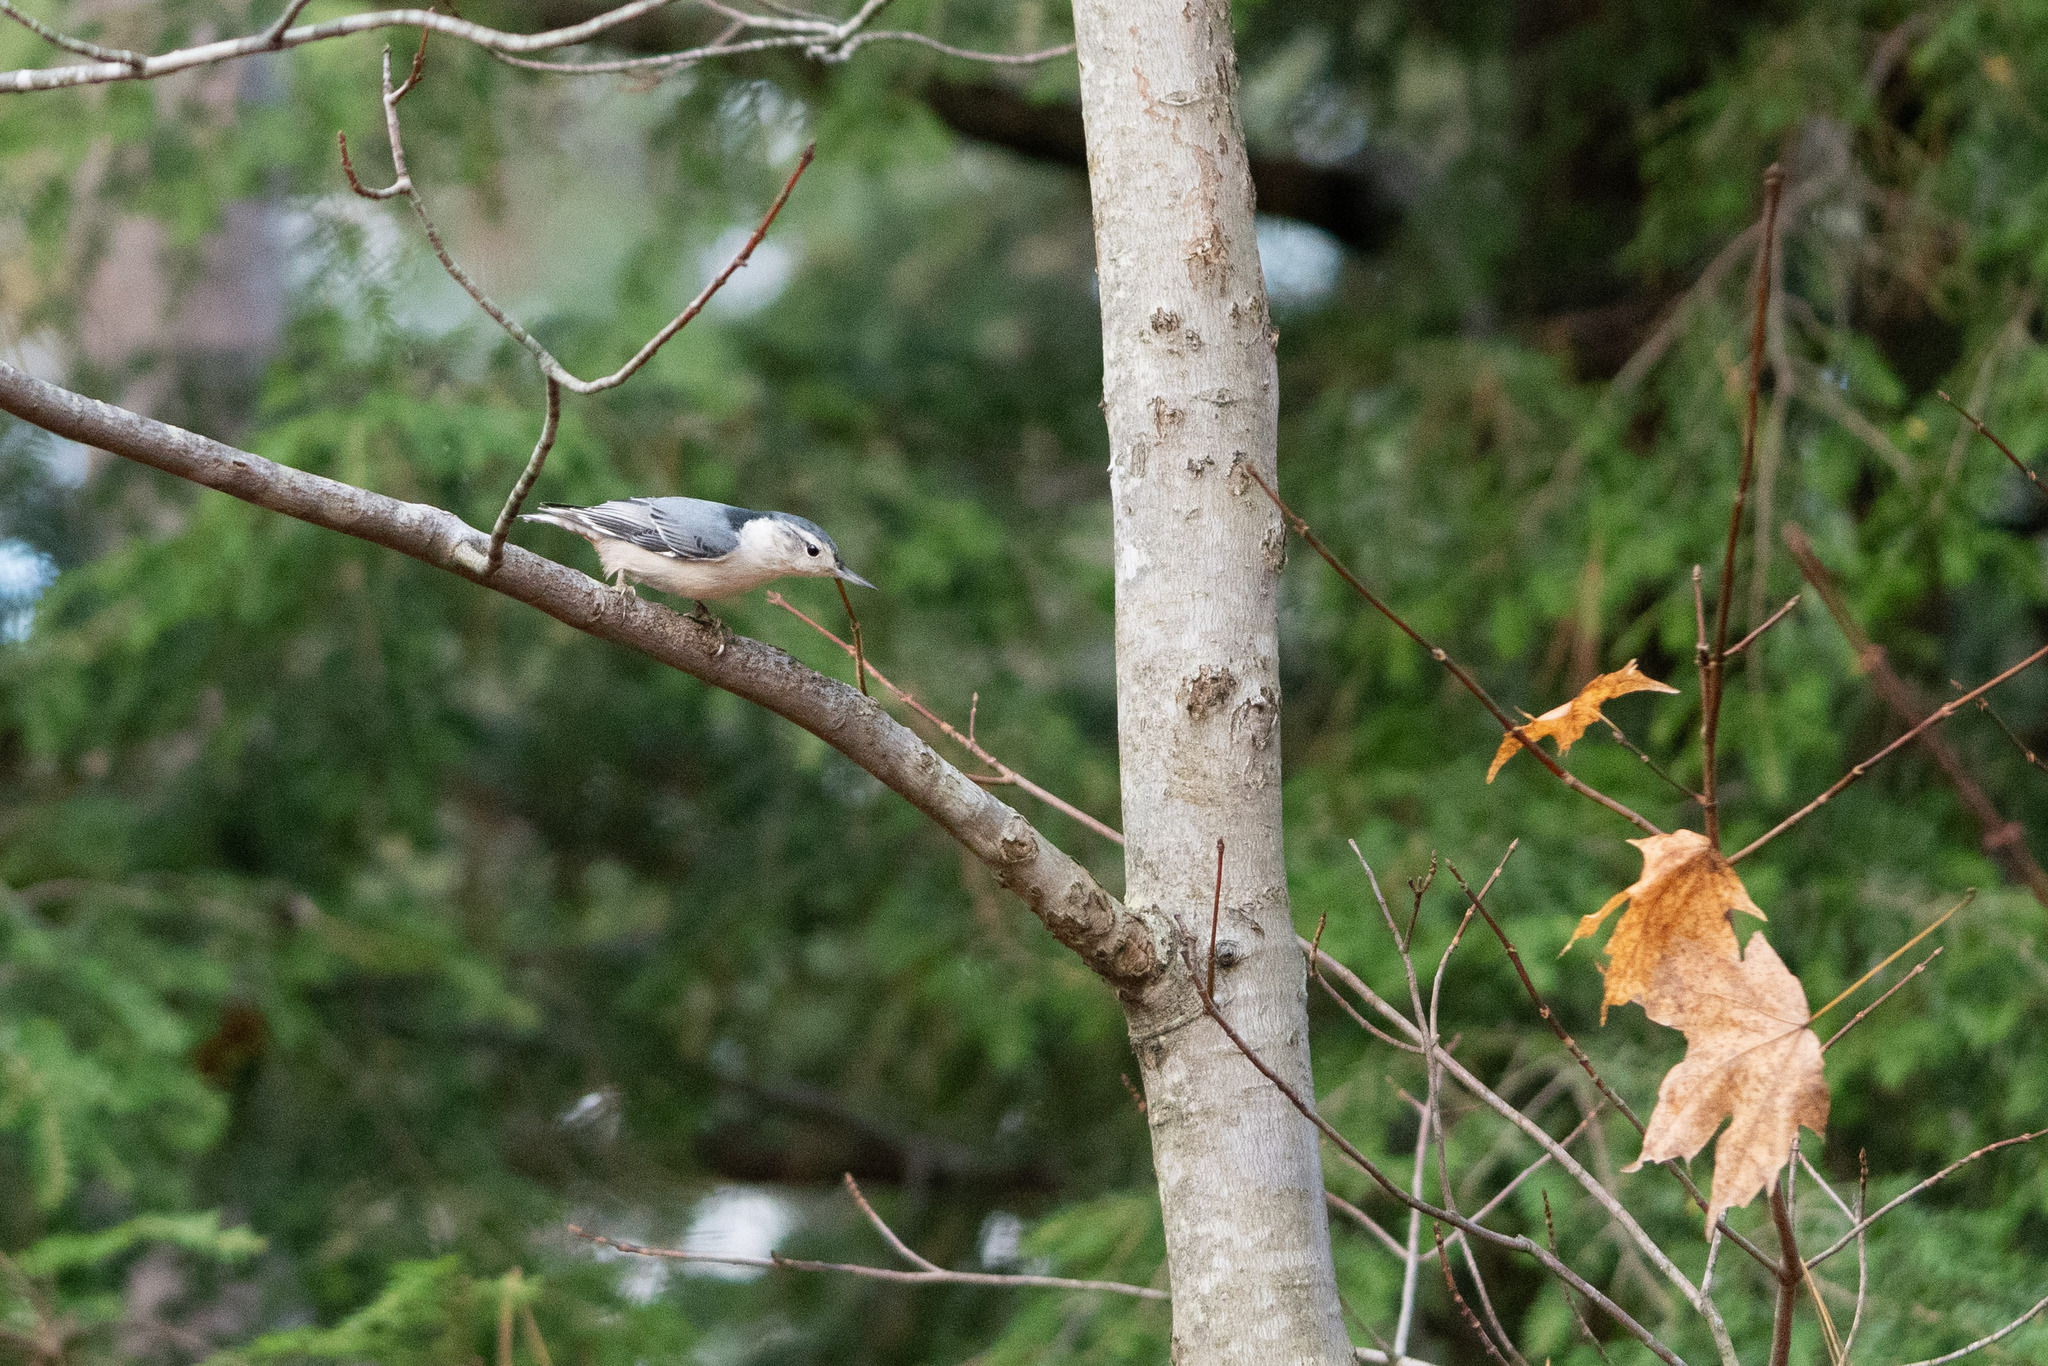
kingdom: Animalia
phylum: Chordata
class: Aves
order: Passeriformes
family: Sittidae
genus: Sitta
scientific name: Sitta carolinensis
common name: White-breasted nuthatch
